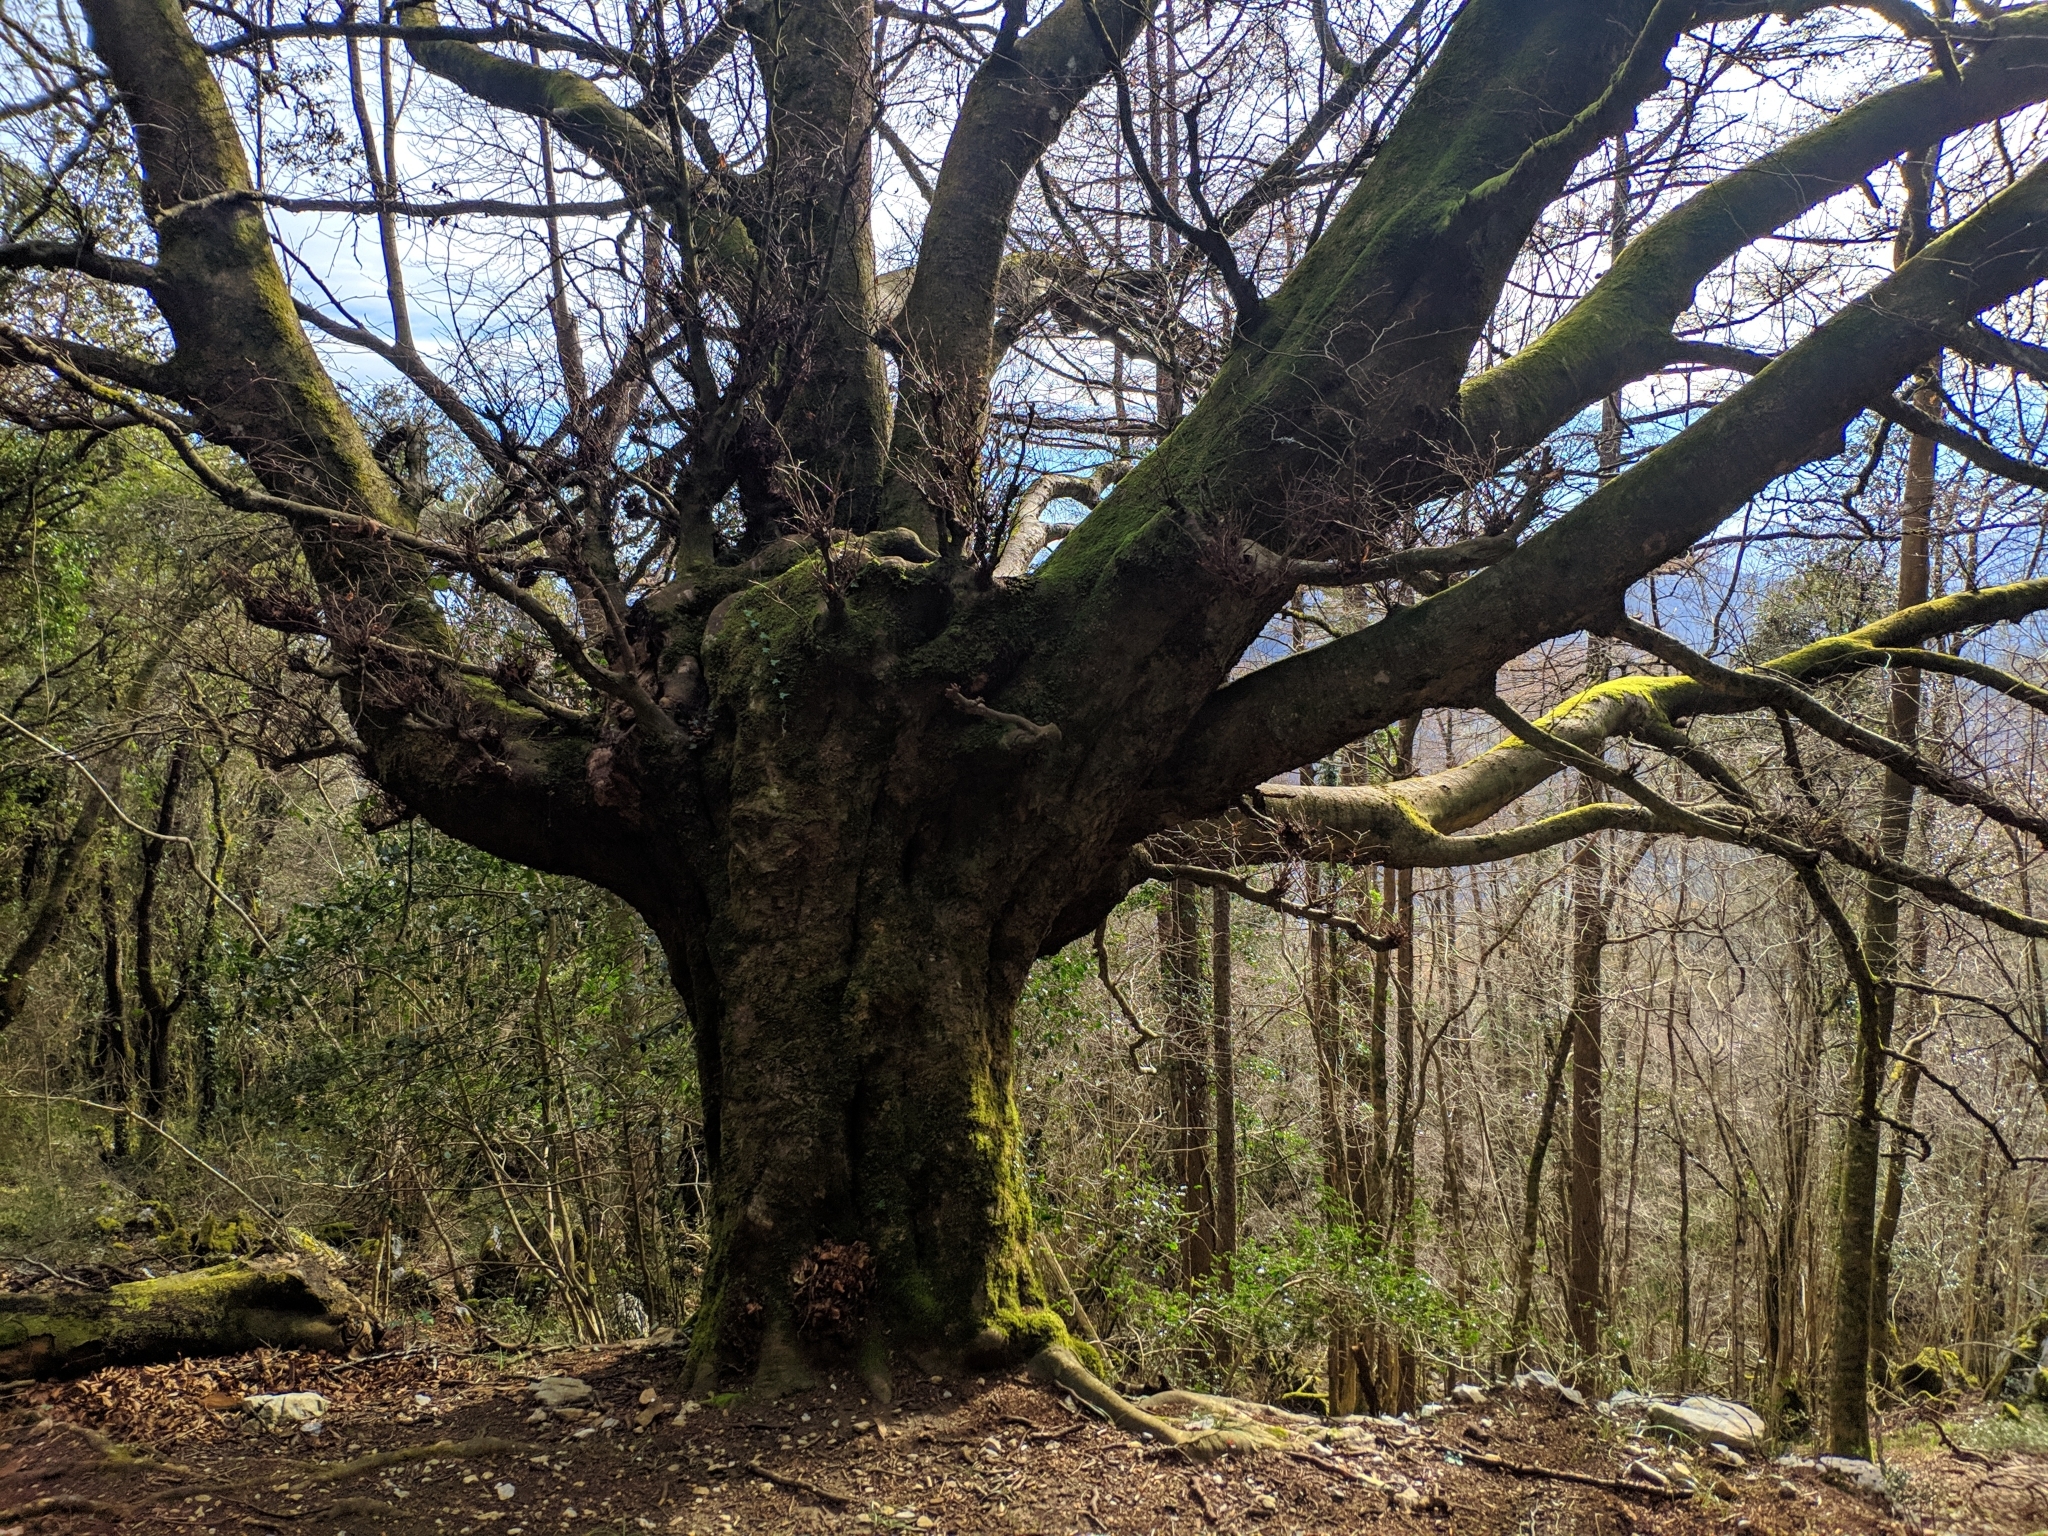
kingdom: Plantae
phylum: Tracheophyta
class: Magnoliopsida
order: Fagales
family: Fagaceae
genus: Fagus
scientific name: Fagus sylvatica
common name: Beech
